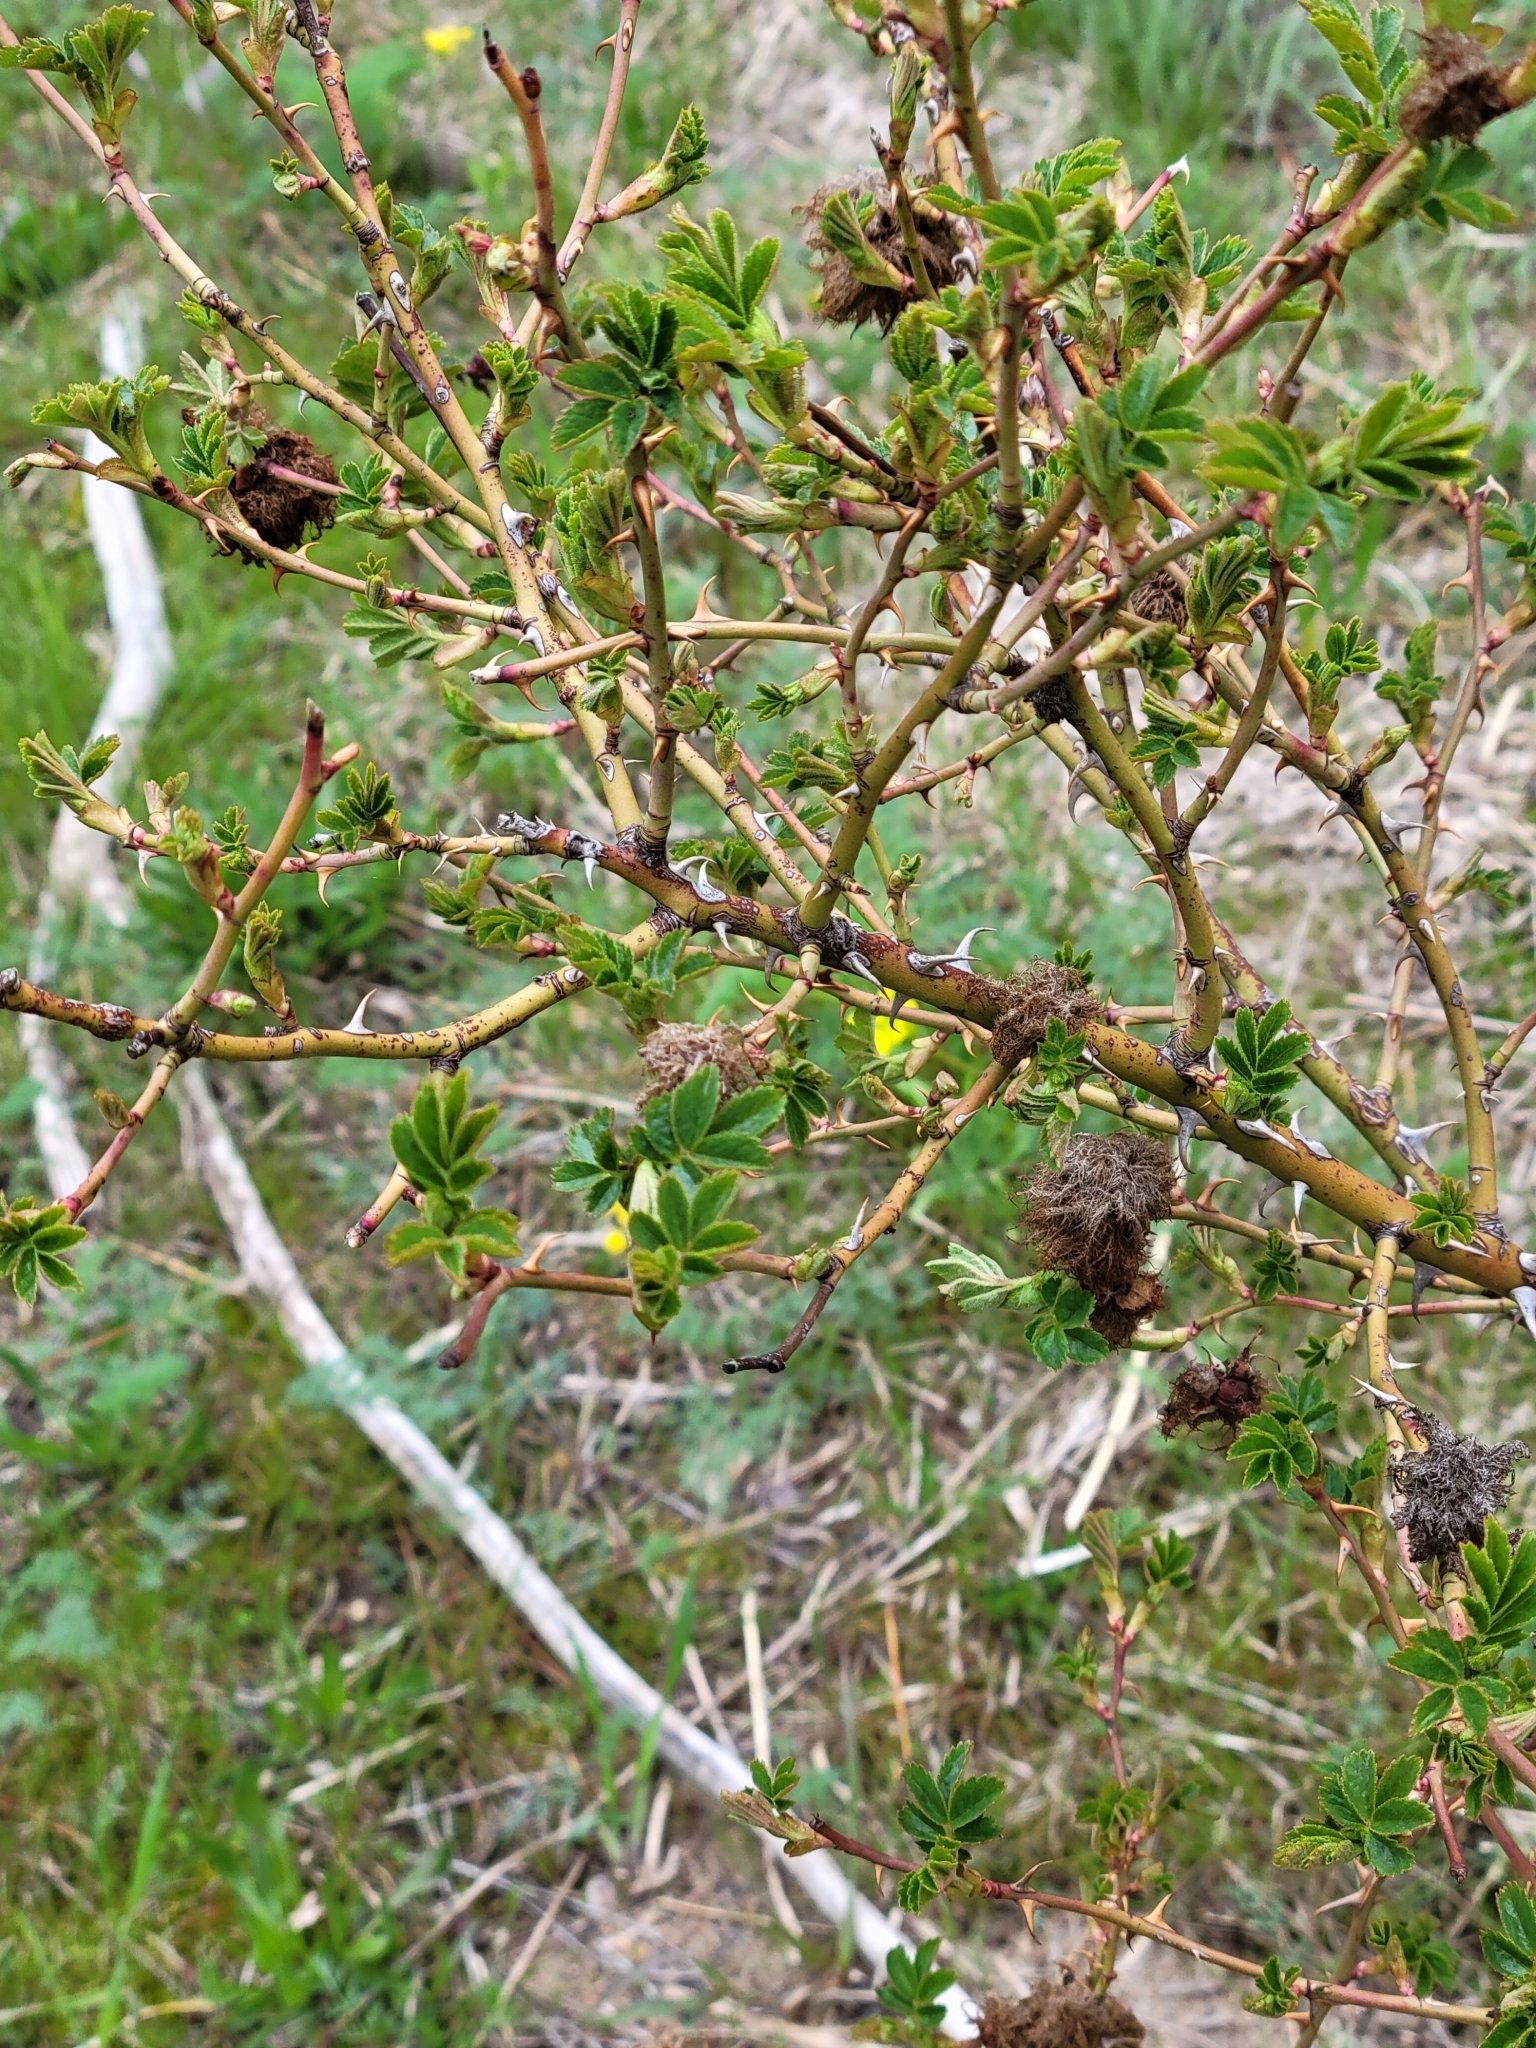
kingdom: Plantae
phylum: Tracheophyta
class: Magnoliopsida
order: Rosales
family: Rosaceae
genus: Rosa
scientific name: Rosa rubiginosa
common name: Sweet-briar
